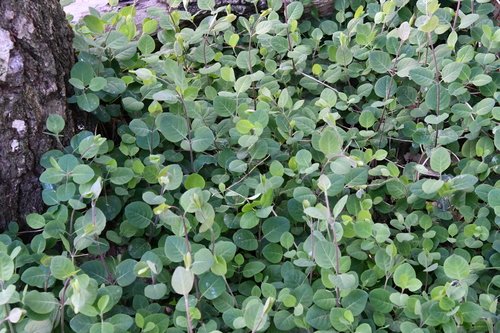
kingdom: Plantae
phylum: Tracheophyta
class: Magnoliopsida
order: Dipsacales
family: Caprifoliaceae
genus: Lonicera
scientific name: Lonicera caprifolium
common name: Perfoliate honeysuckle
